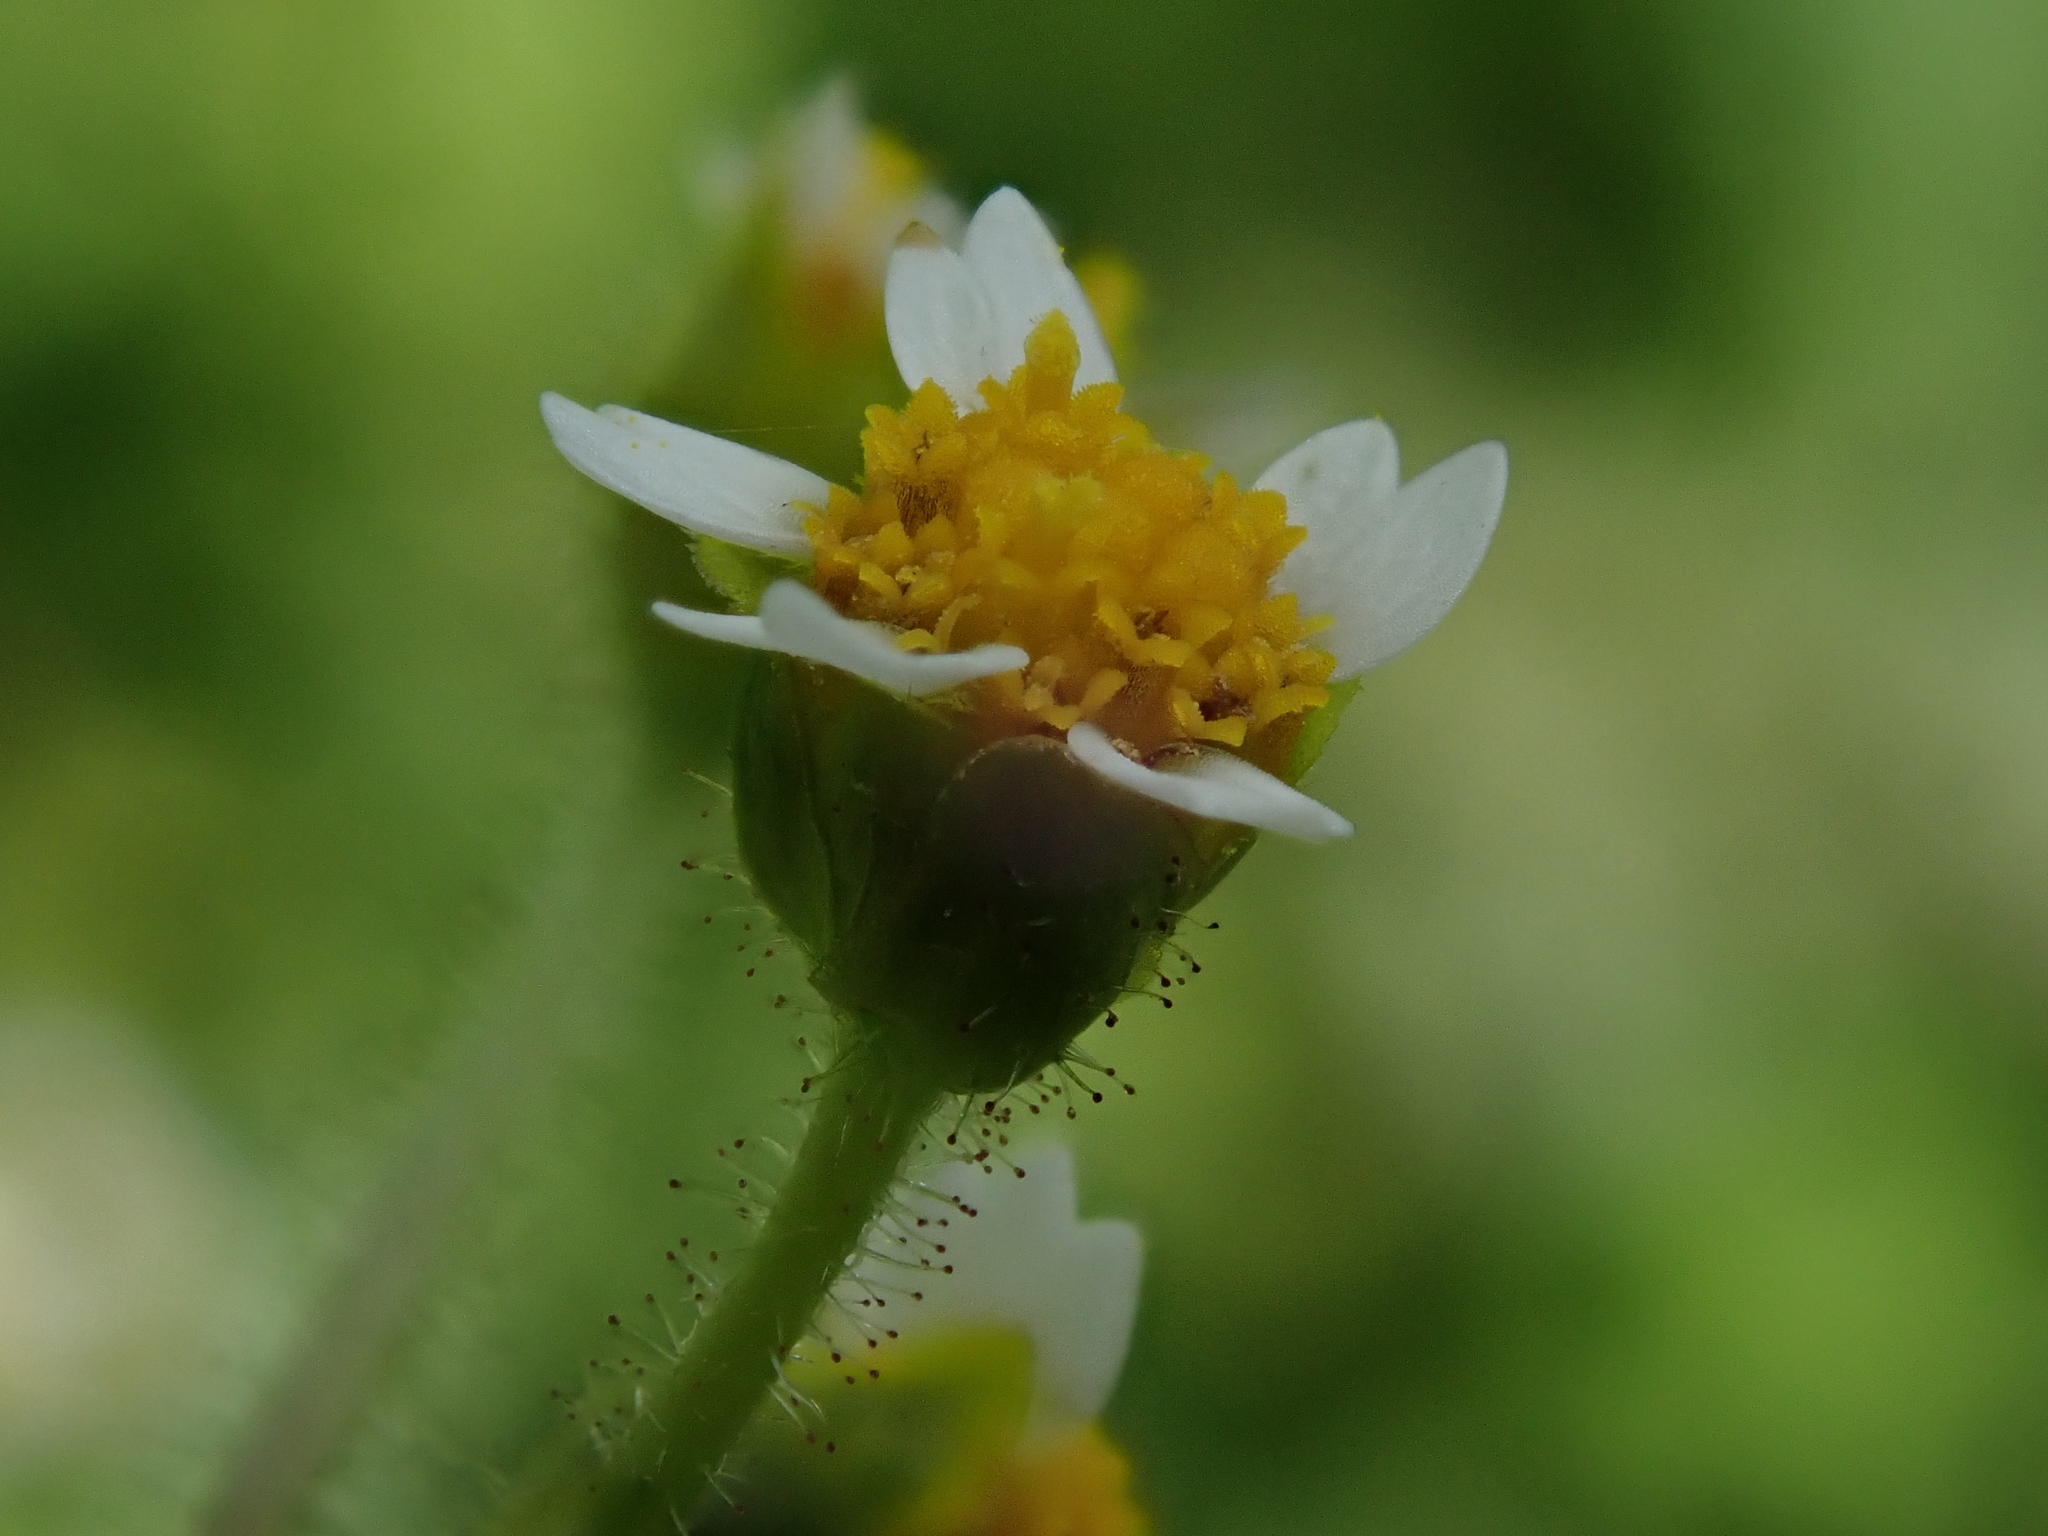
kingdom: Plantae
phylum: Tracheophyta
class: Magnoliopsida
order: Asterales
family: Asteraceae
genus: Galinsoga
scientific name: Galinsoga quadriradiata
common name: Shaggy soldier
